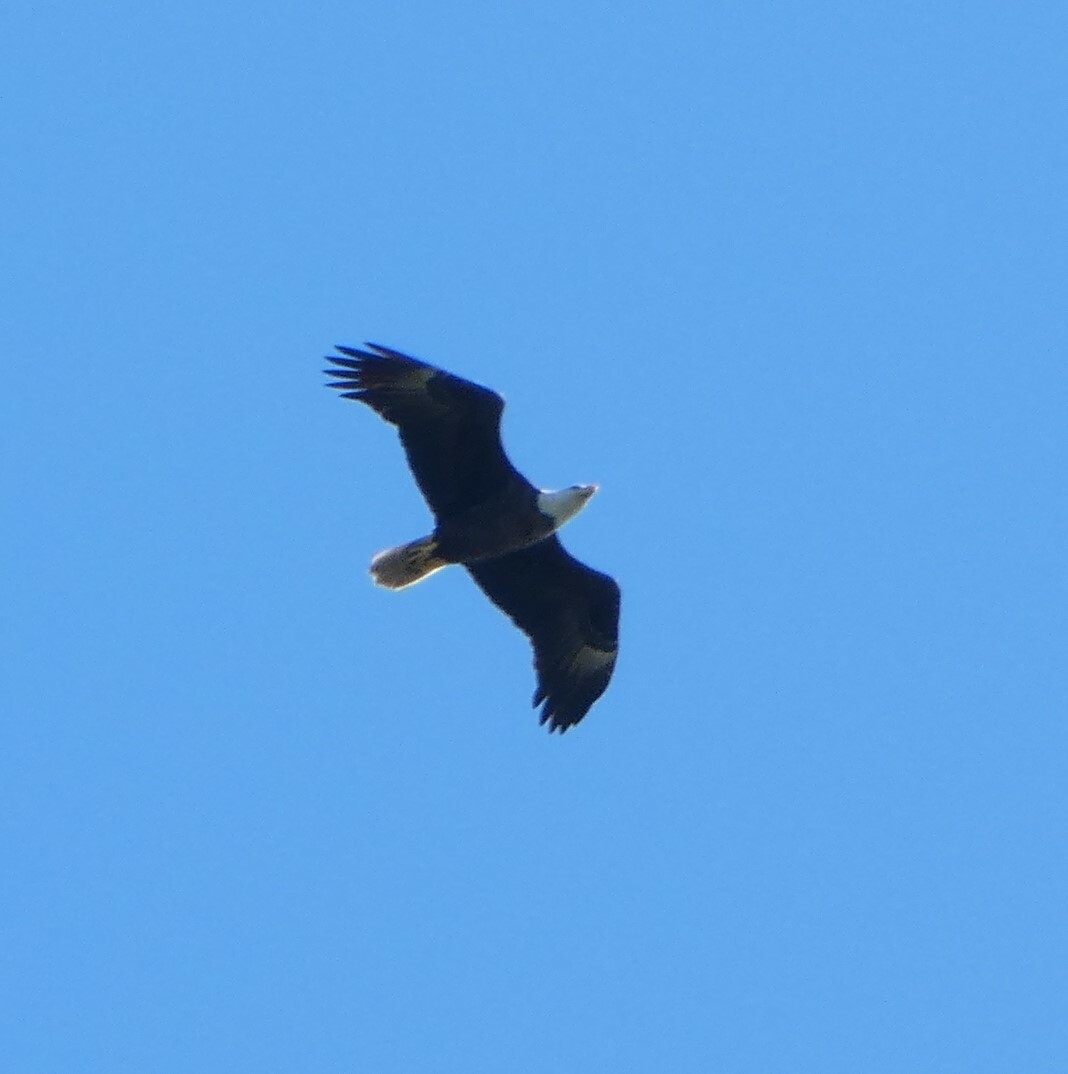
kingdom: Animalia
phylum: Chordata
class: Aves
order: Accipitriformes
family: Accipitridae
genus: Haliaeetus
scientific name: Haliaeetus leucocephalus
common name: Bald eagle
